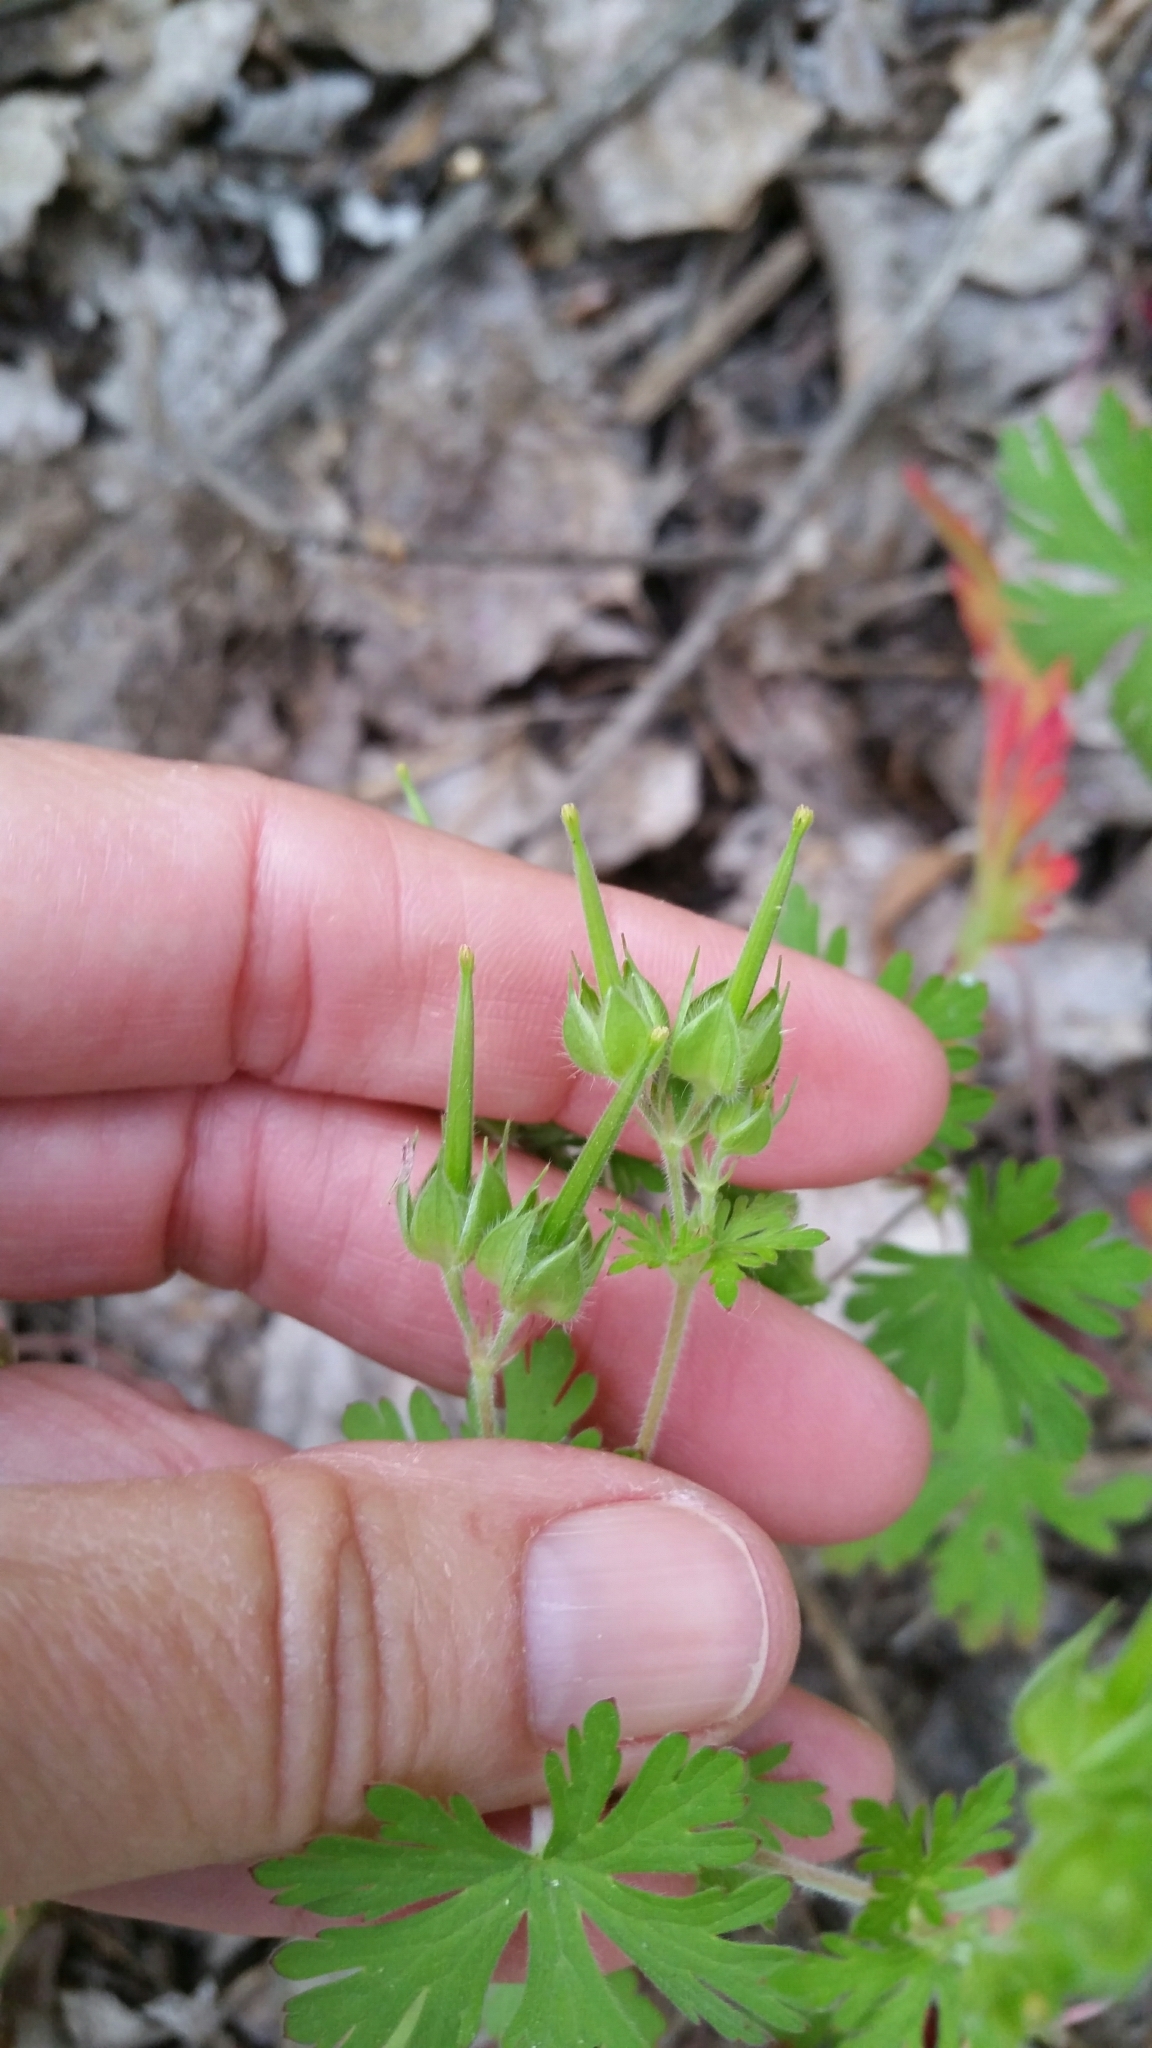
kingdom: Plantae
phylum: Tracheophyta
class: Magnoliopsida
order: Geraniales
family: Geraniaceae
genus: Geranium
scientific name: Geranium carolinianum
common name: Carolina crane's-bill
